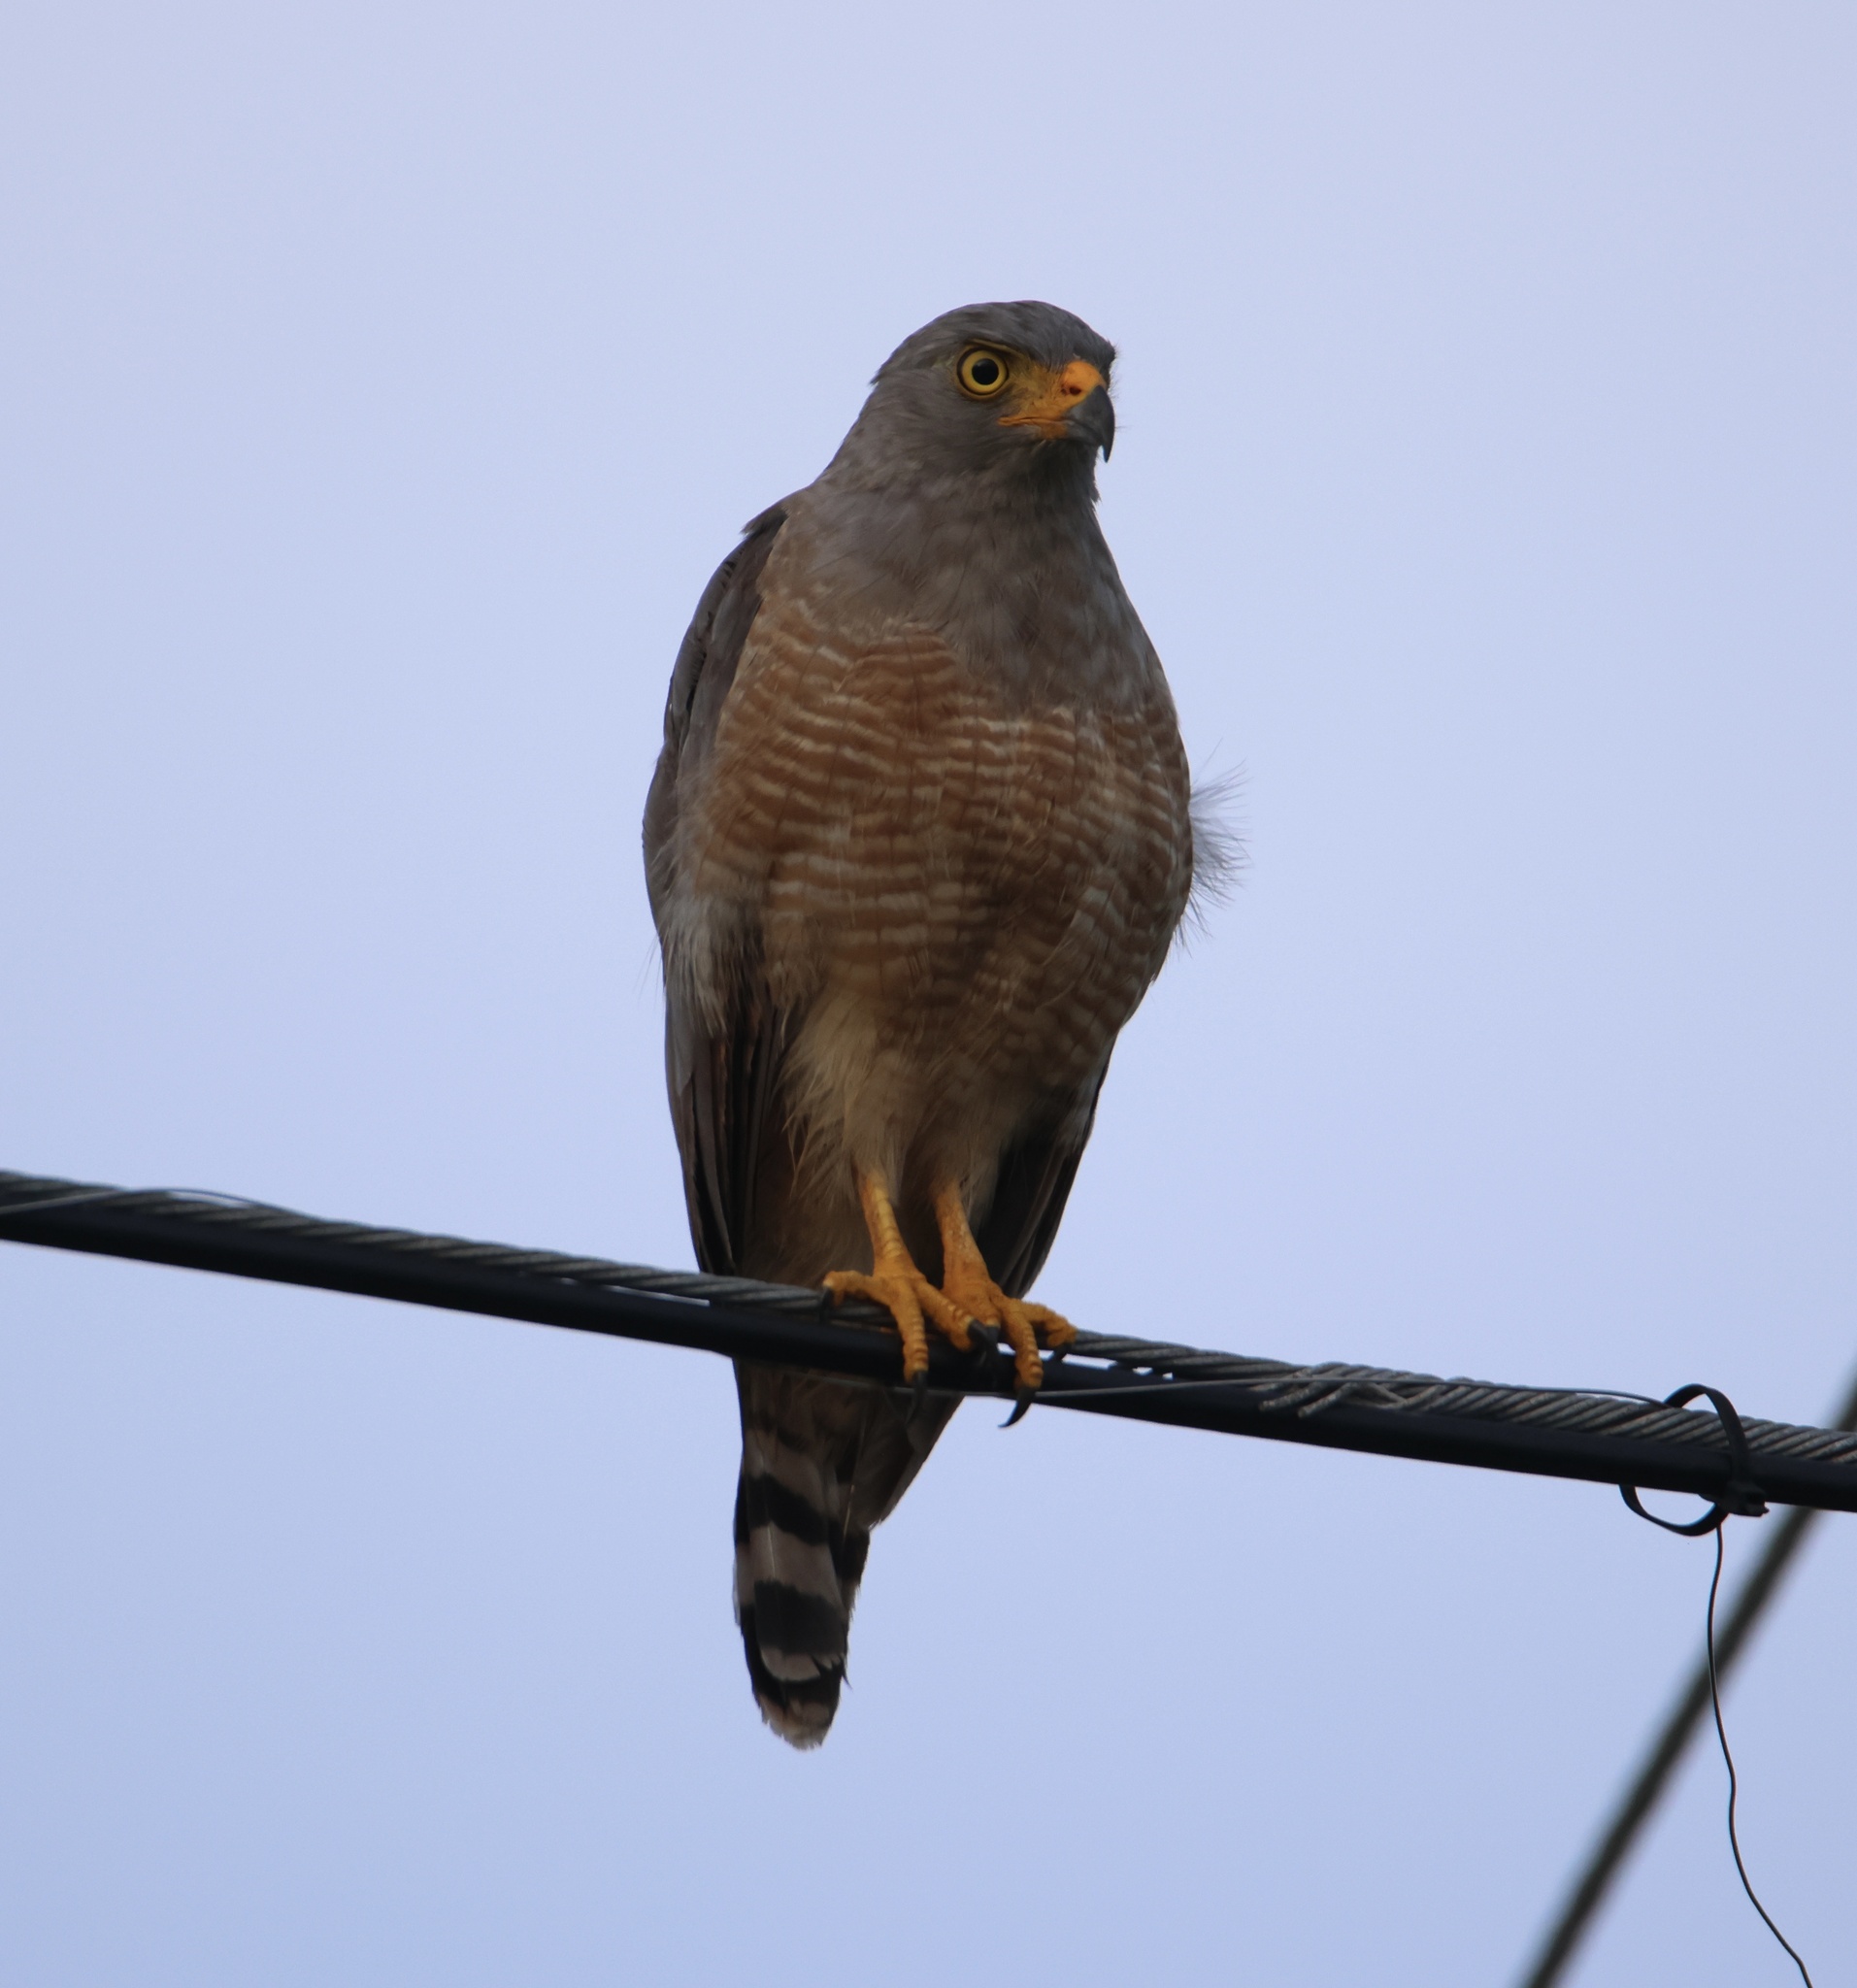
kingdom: Animalia
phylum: Chordata
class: Aves
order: Accipitriformes
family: Accipitridae
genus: Rupornis
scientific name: Rupornis magnirostris
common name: Roadside hawk
